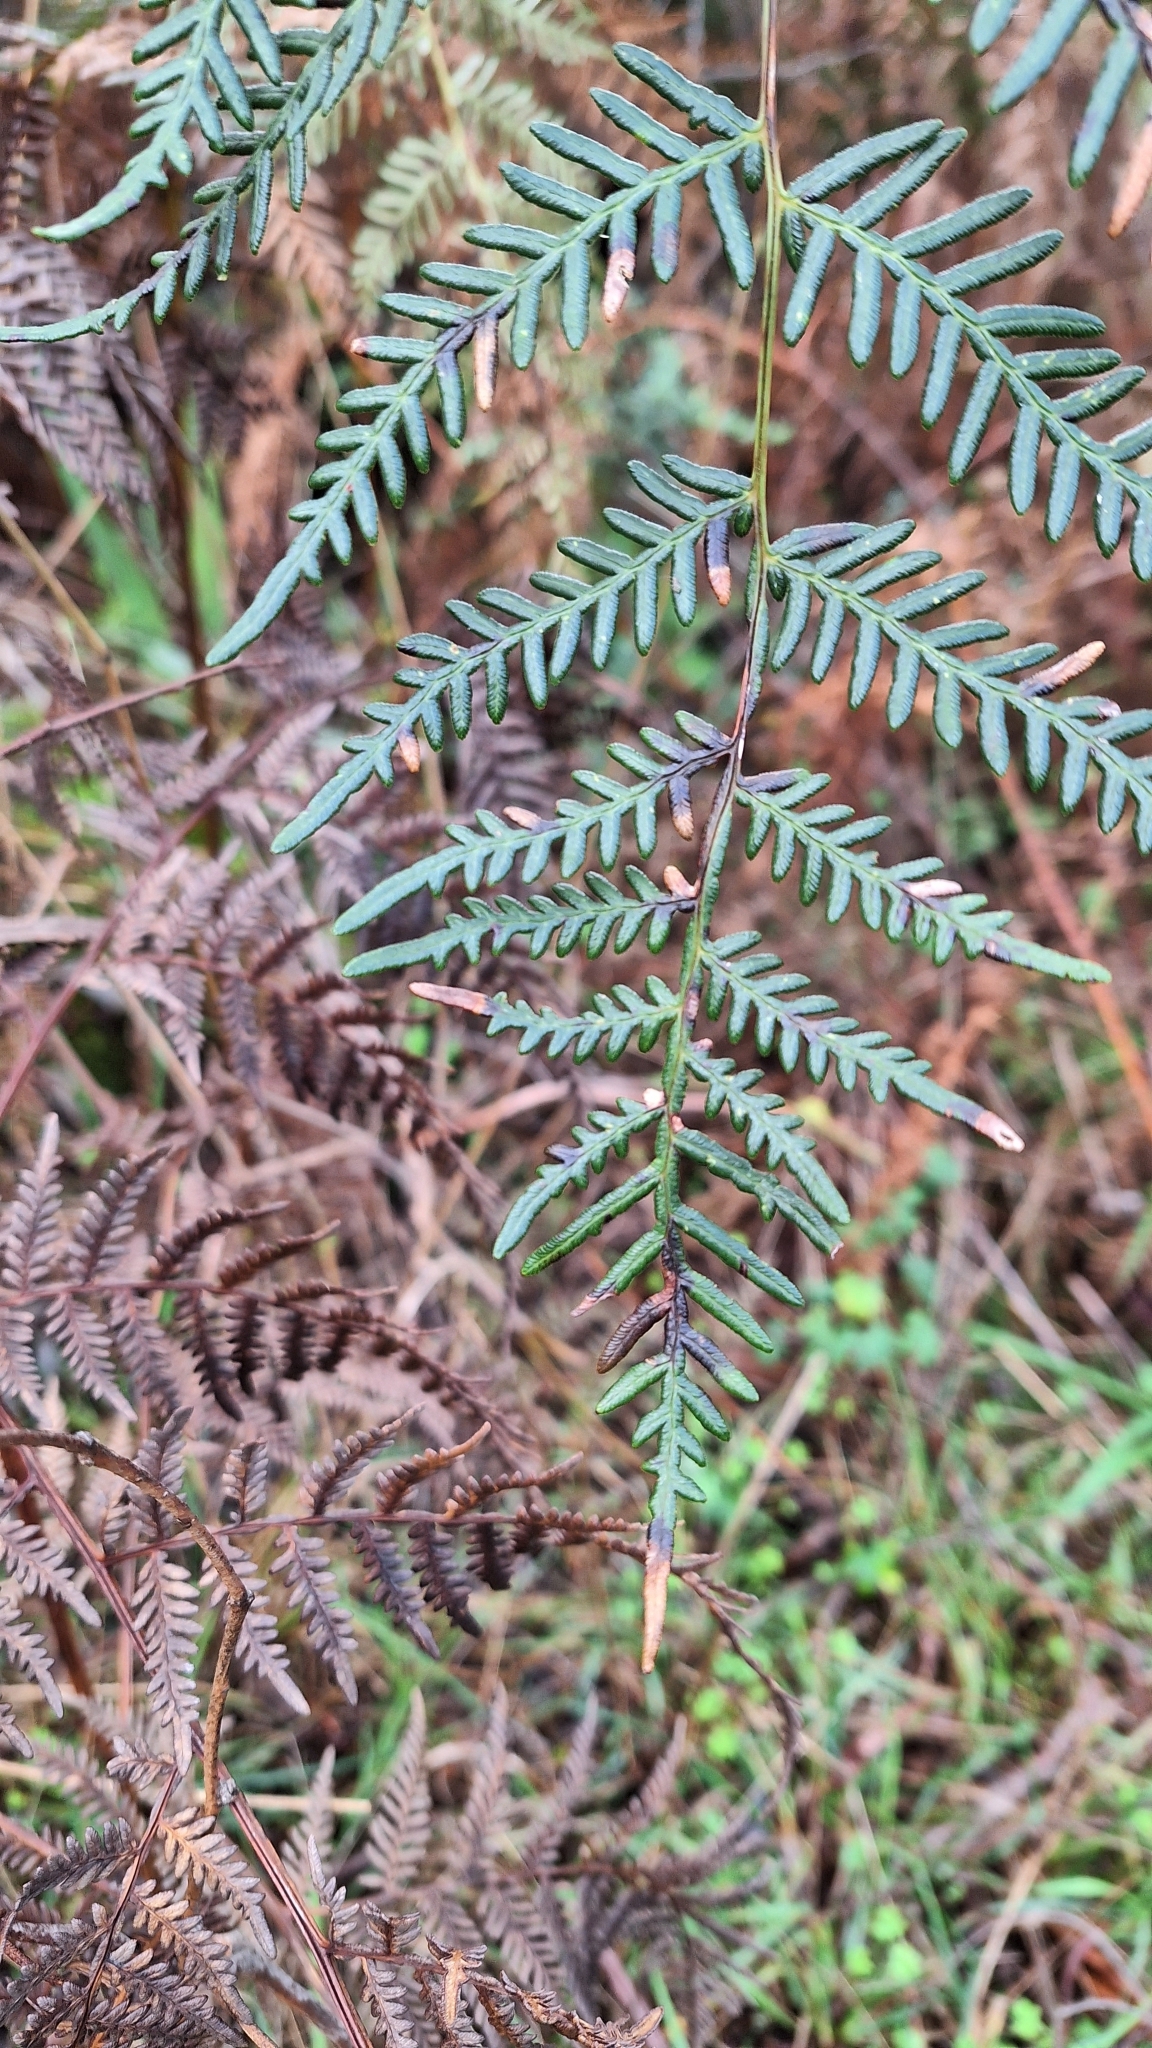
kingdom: Plantae
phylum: Tracheophyta
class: Polypodiopsida
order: Polypodiales
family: Dennstaedtiaceae
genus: Pteridium
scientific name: Pteridium esculentum
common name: Bracken fern
